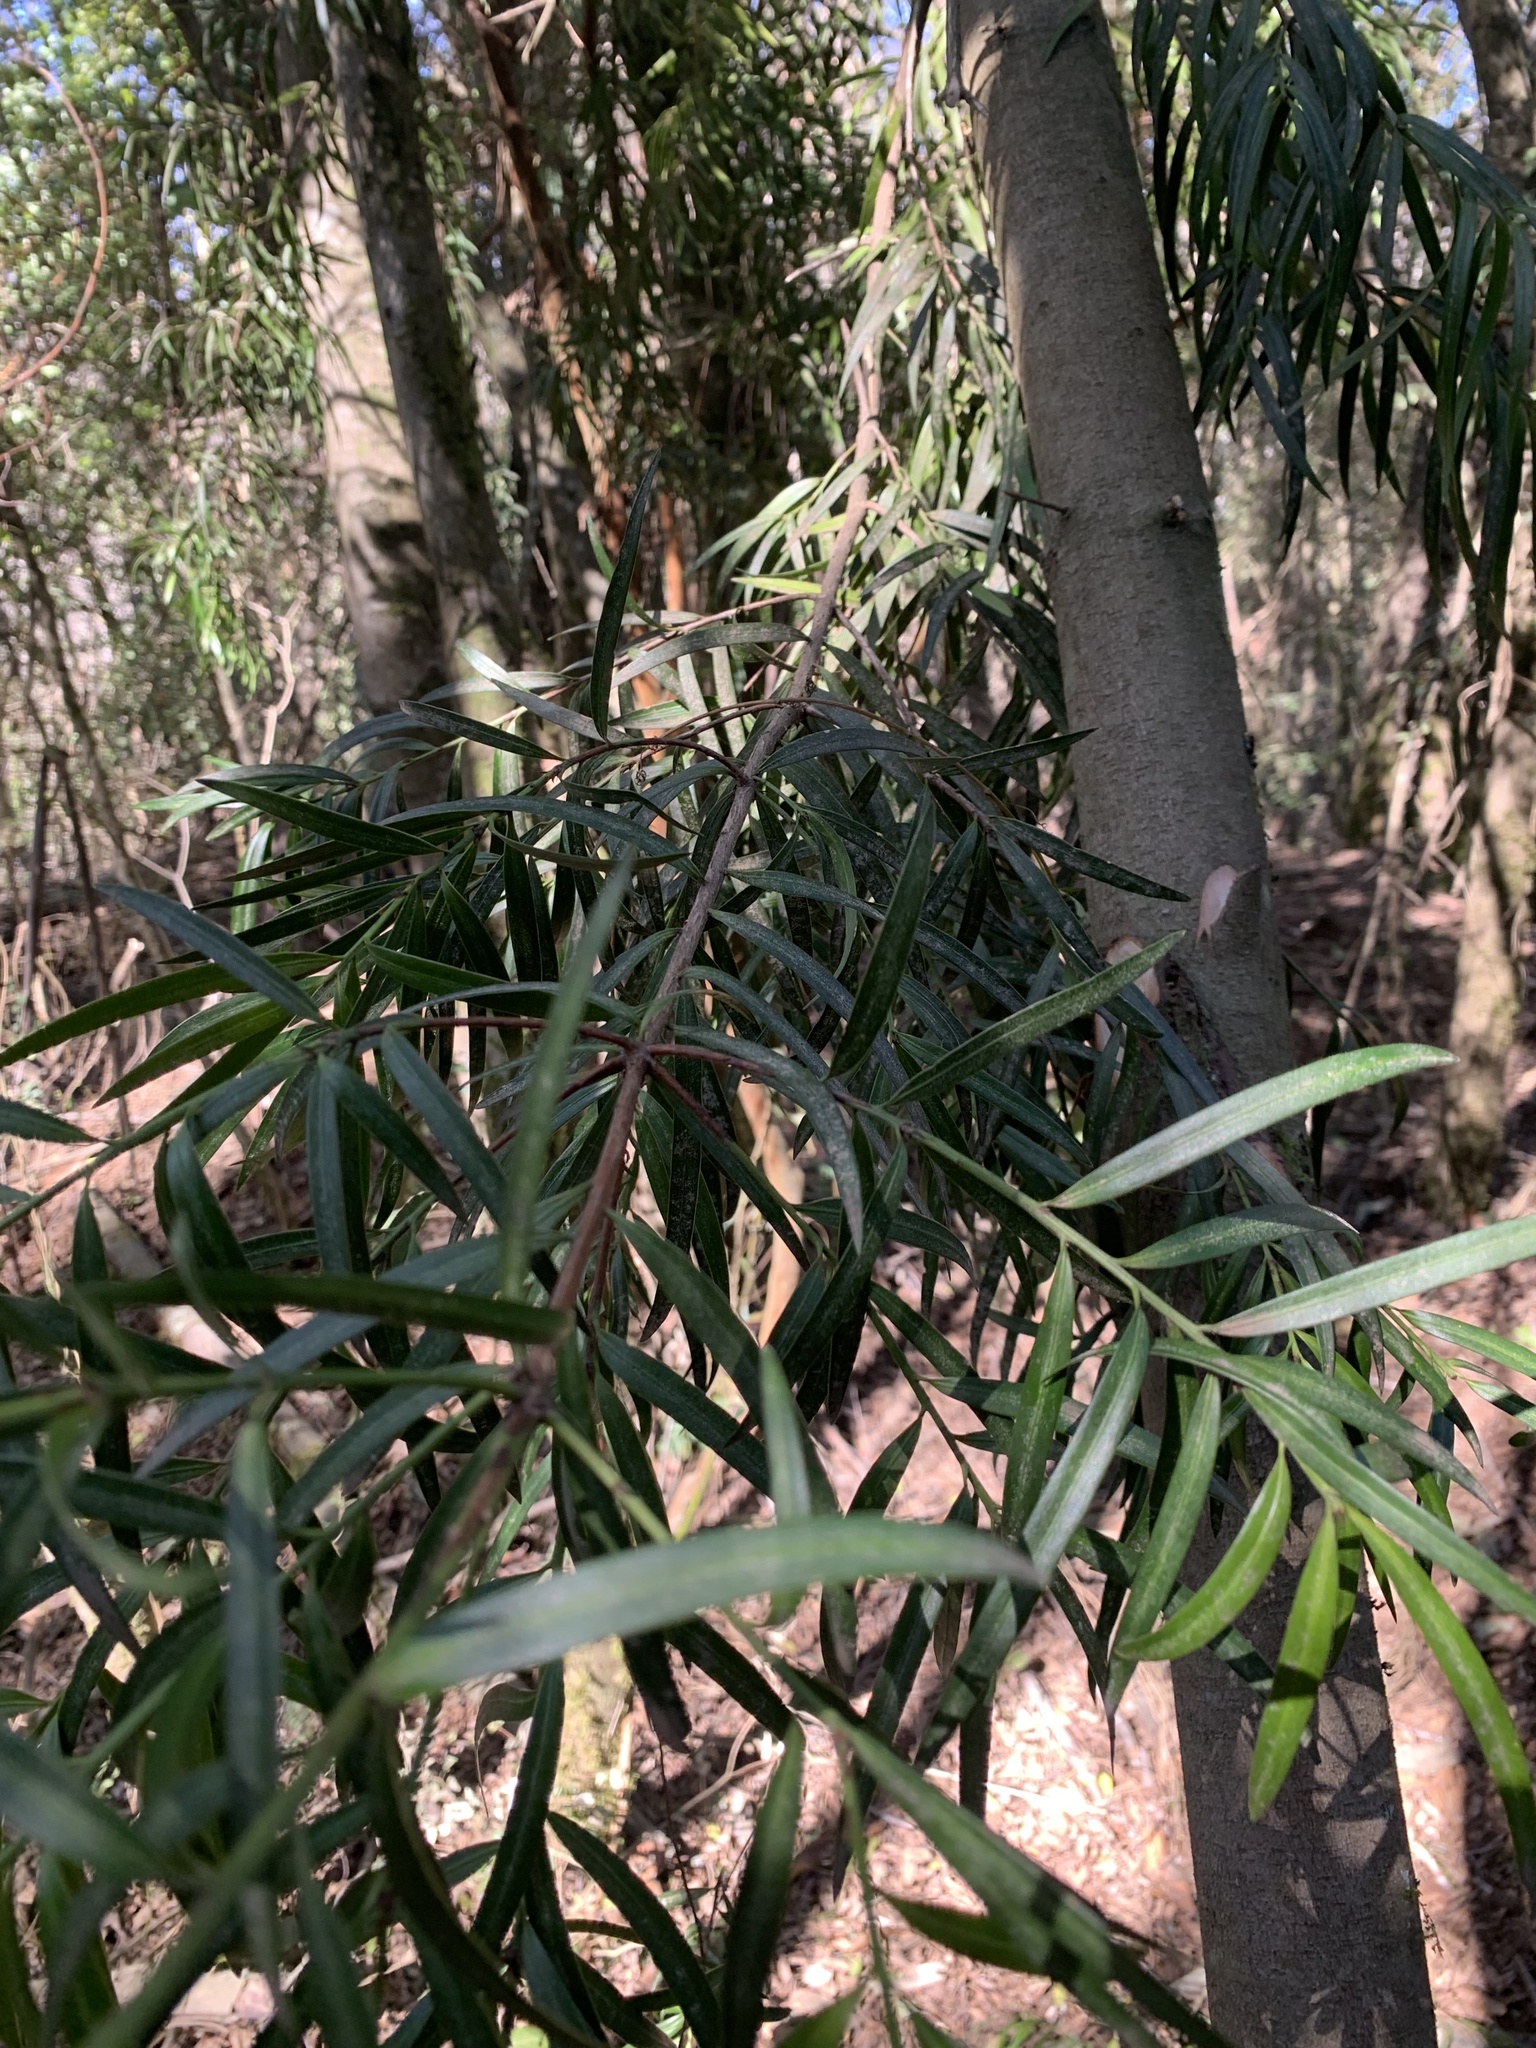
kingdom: Plantae
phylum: Tracheophyta
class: Pinopsida
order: Pinales
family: Podocarpaceae
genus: Podocarpus
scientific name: Podocarpus salignus
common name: Willow-leaf podocarp
